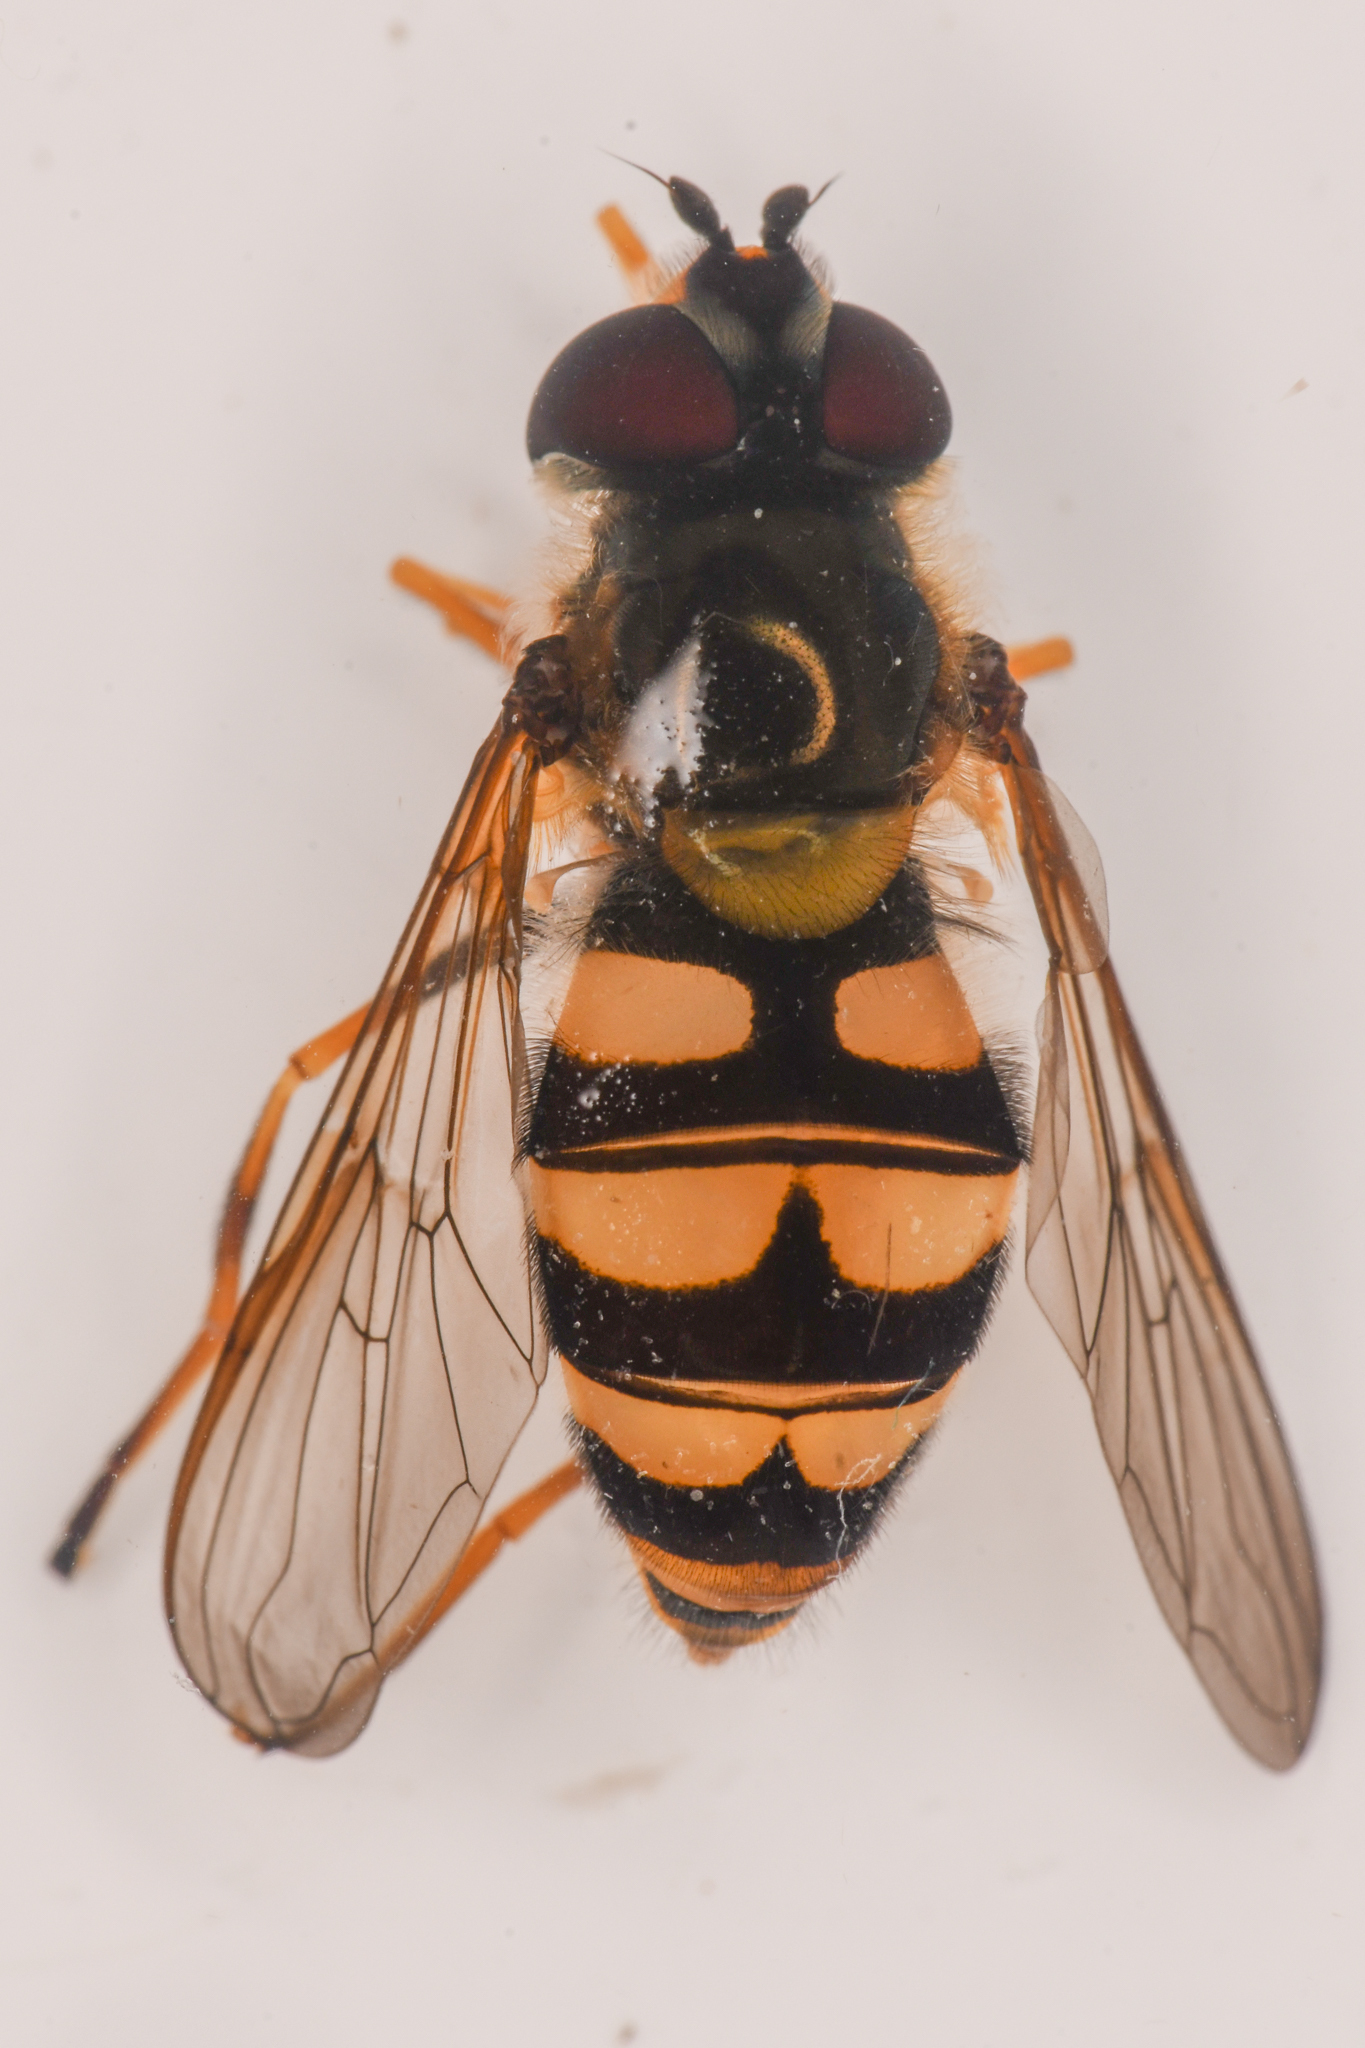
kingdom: Animalia
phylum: Arthropoda
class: Insecta
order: Diptera
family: Syrphidae
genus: Megasyrphus
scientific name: Megasyrphus laxus
